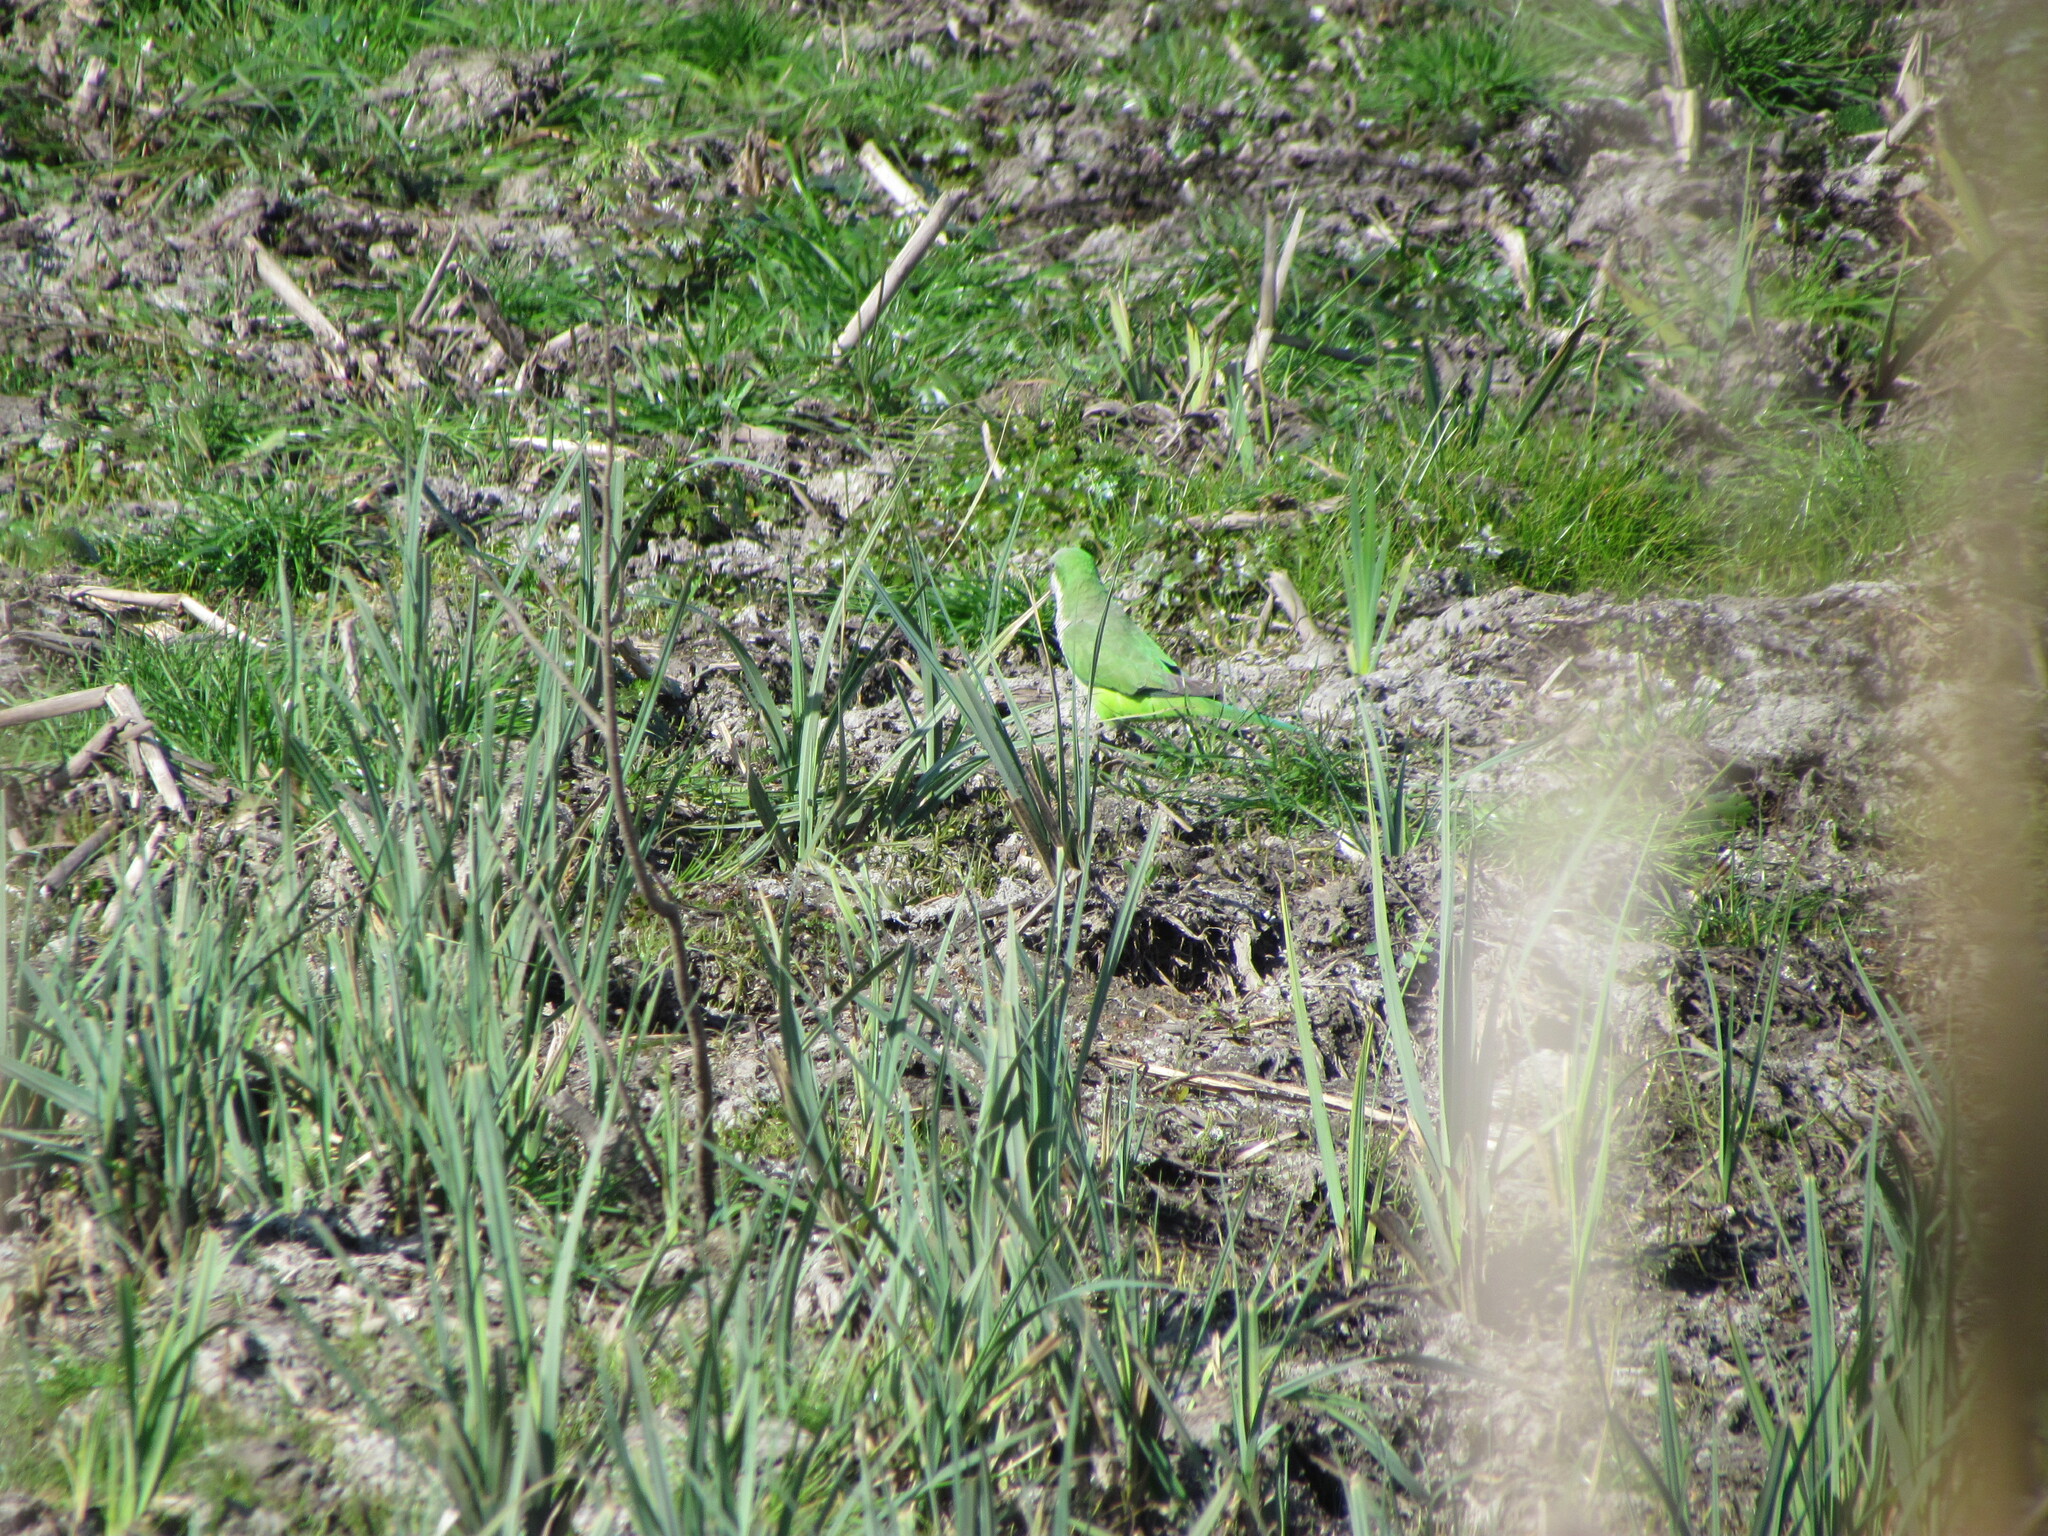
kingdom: Animalia
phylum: Chordata
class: Aves
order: Psittaciformes
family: Psittacidae
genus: Myiopsitta
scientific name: Myiopsitta monachus
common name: Monk parakeet
